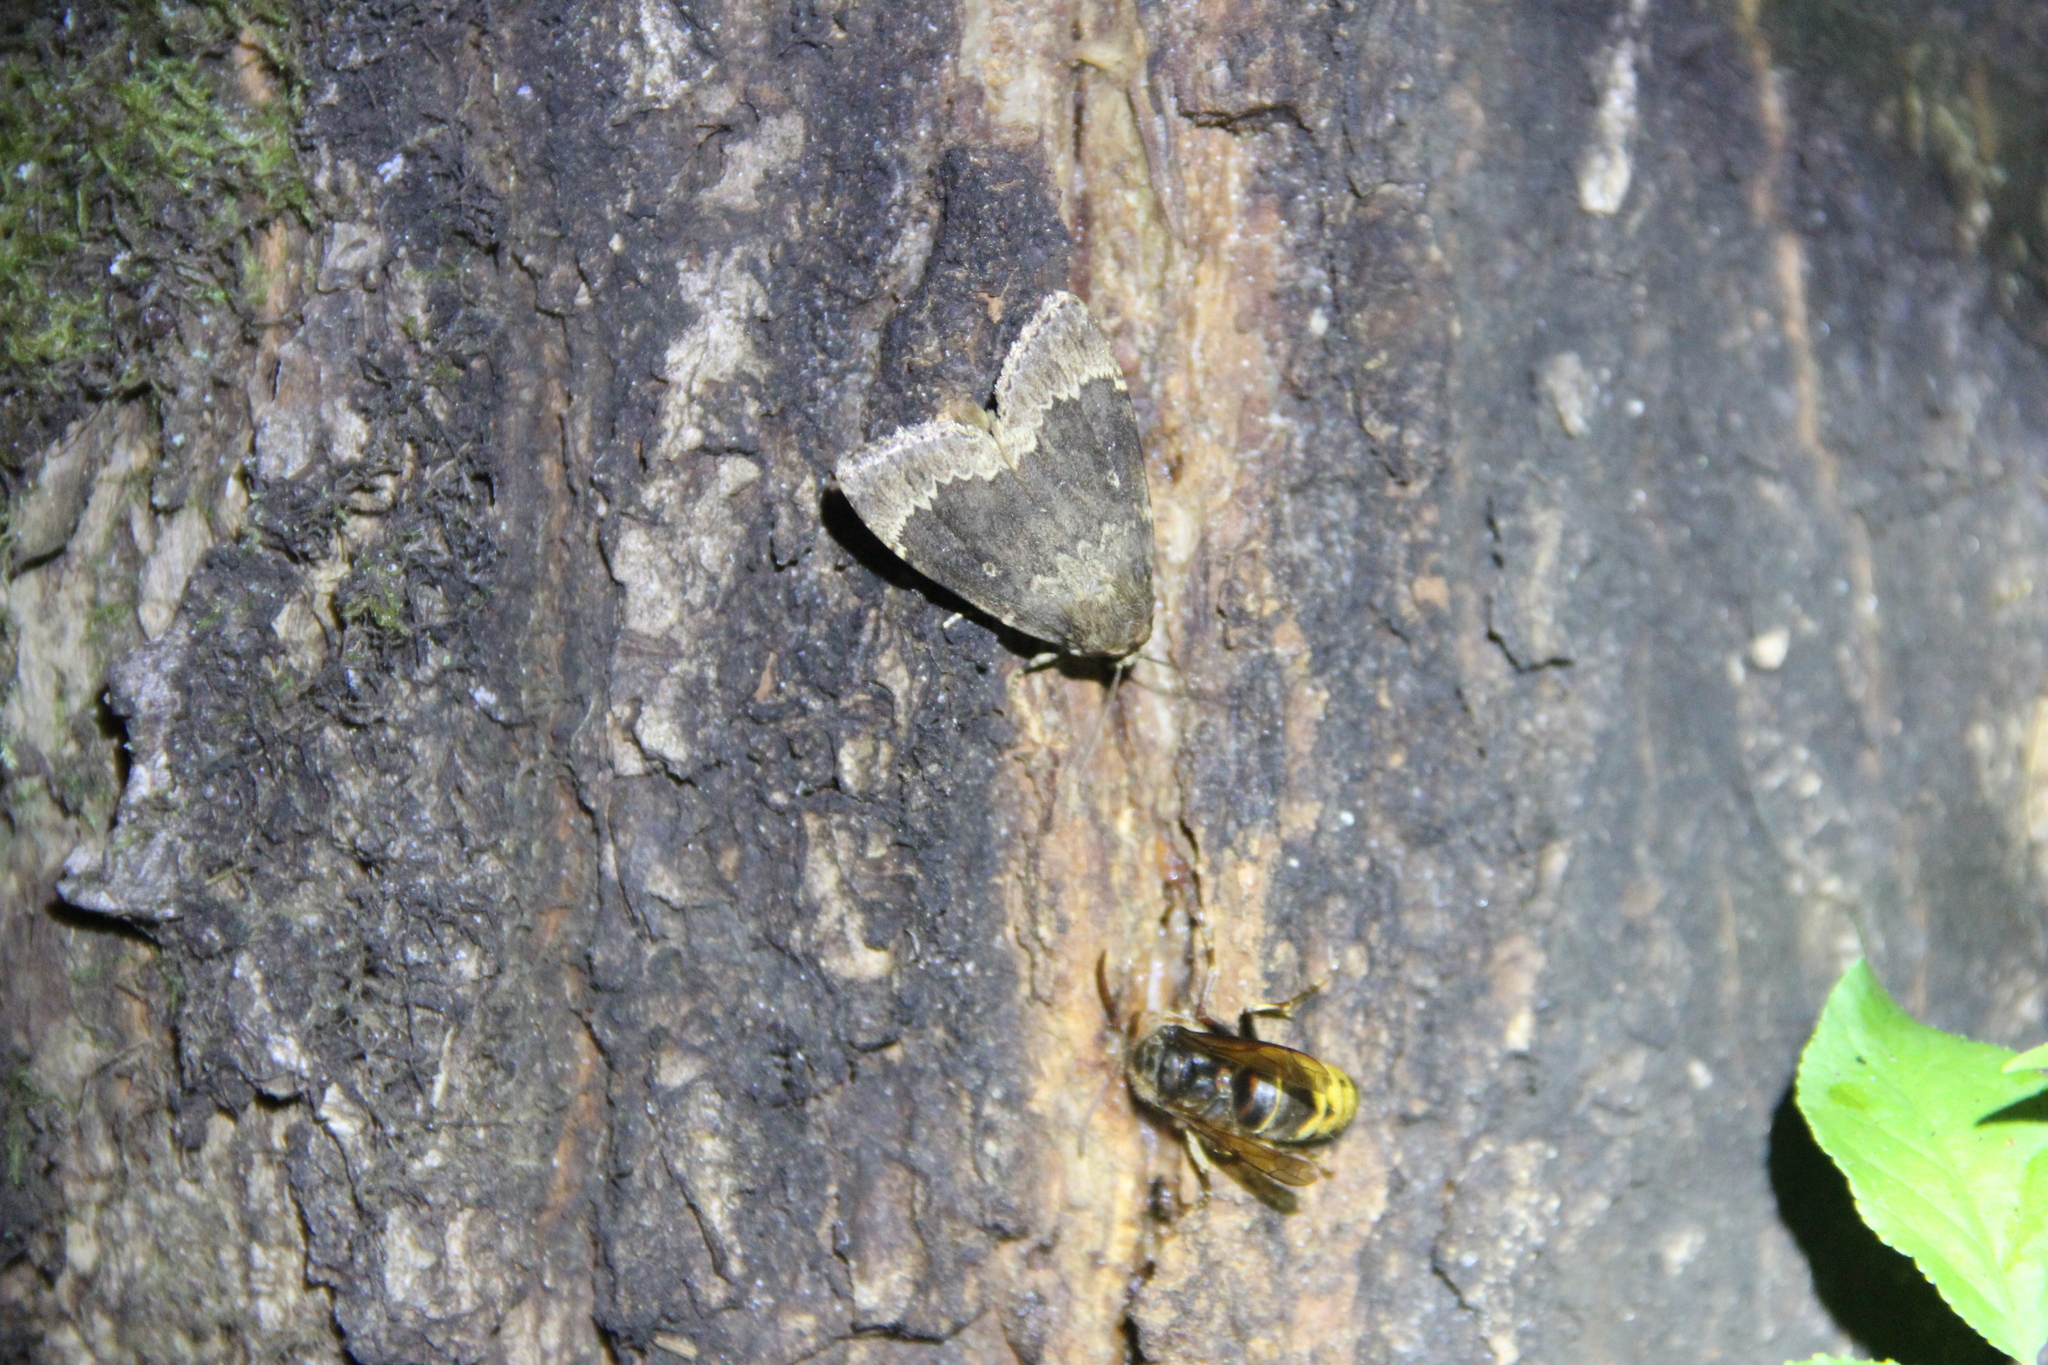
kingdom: Animalia
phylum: Arthropoda
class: Insecta
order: Lepidoptera
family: Noctuidae
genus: Amphipyra
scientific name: Amphipyra perflua
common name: Larger pale-tipped black moth
